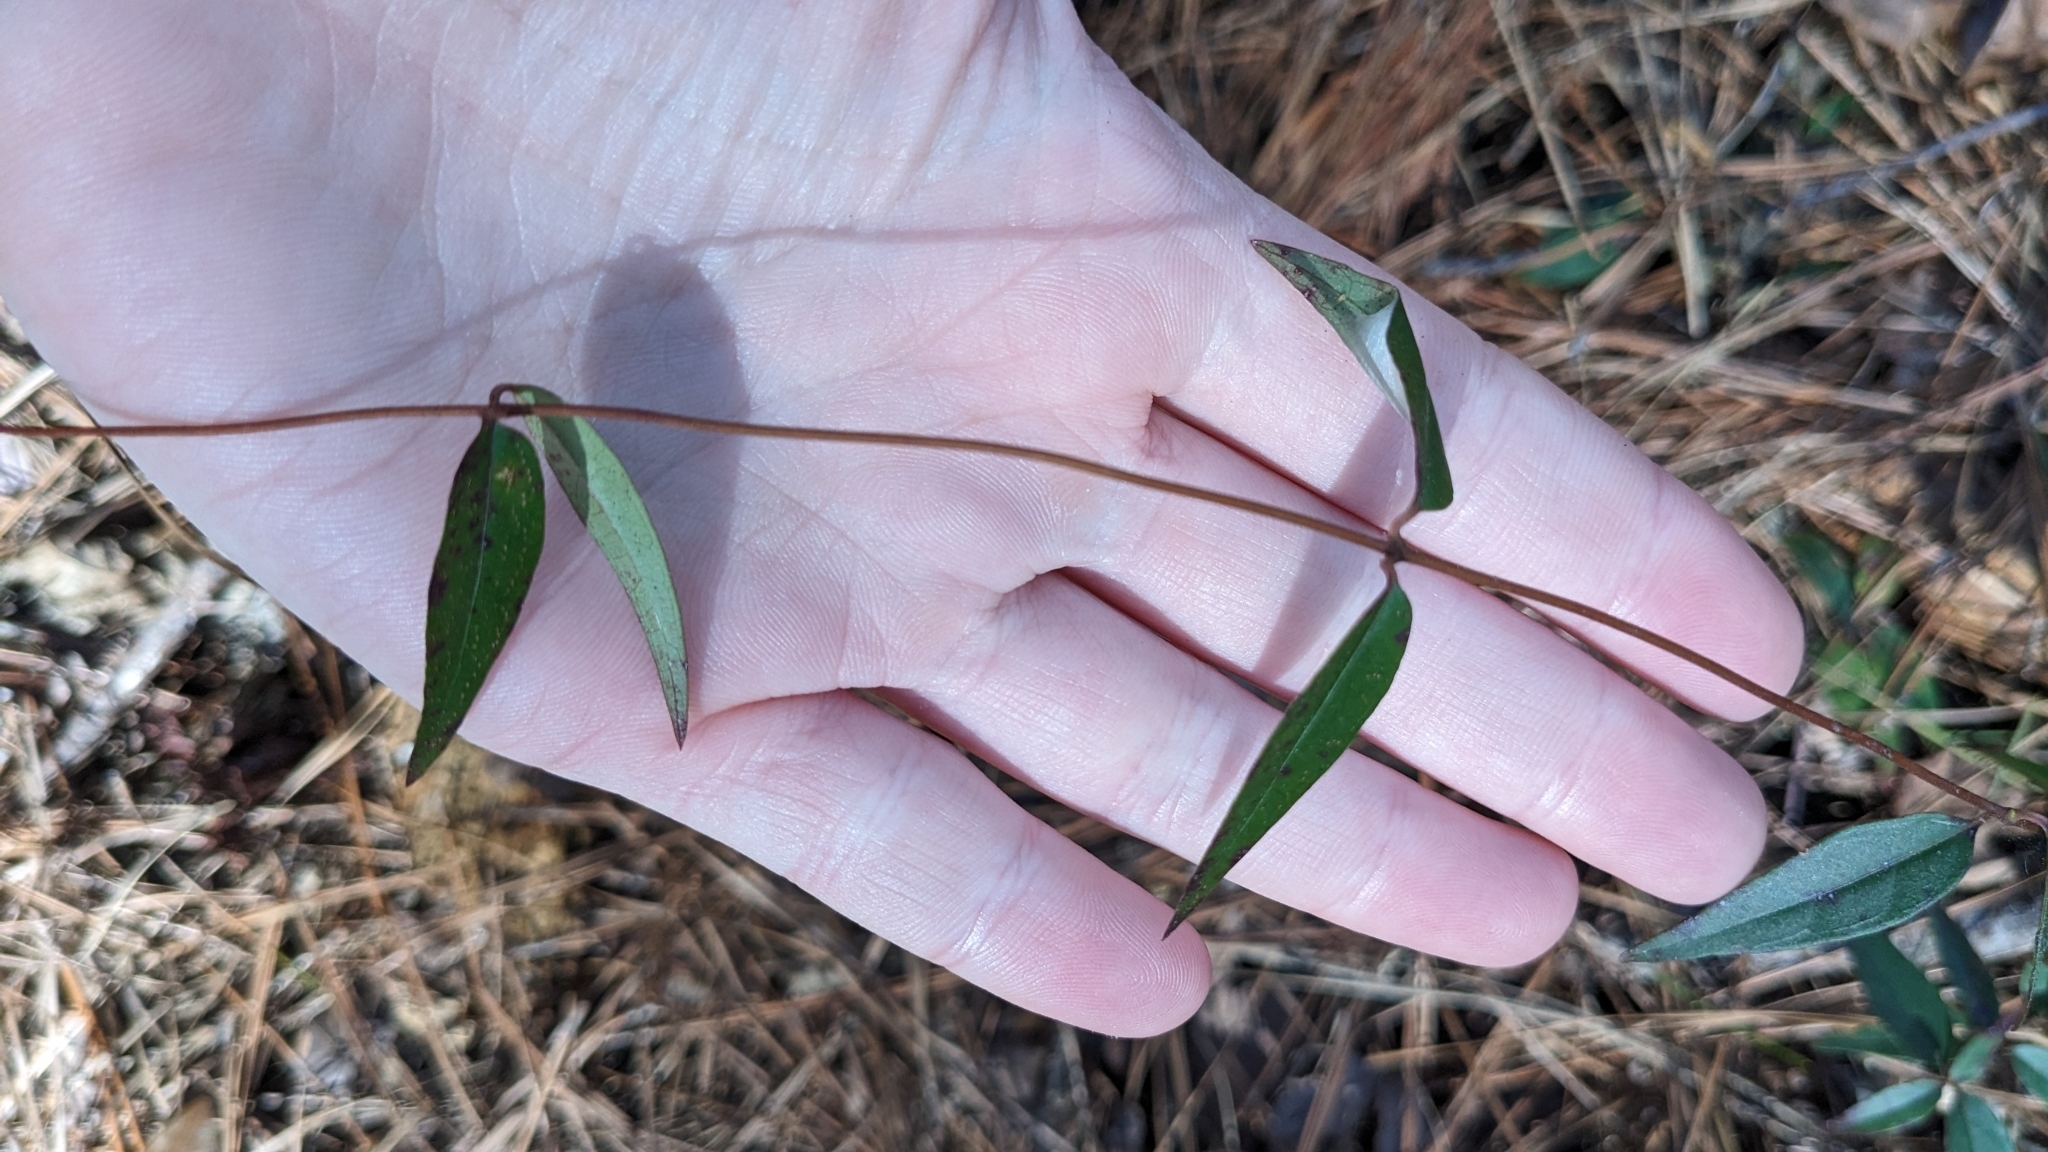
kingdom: Plantae
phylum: Tracheophyta
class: Magnoliopsida
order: Gentianales
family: Gelsemiaceae
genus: Gelsemium
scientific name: Gelsemium sempervirens
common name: Carolina-jasmine
